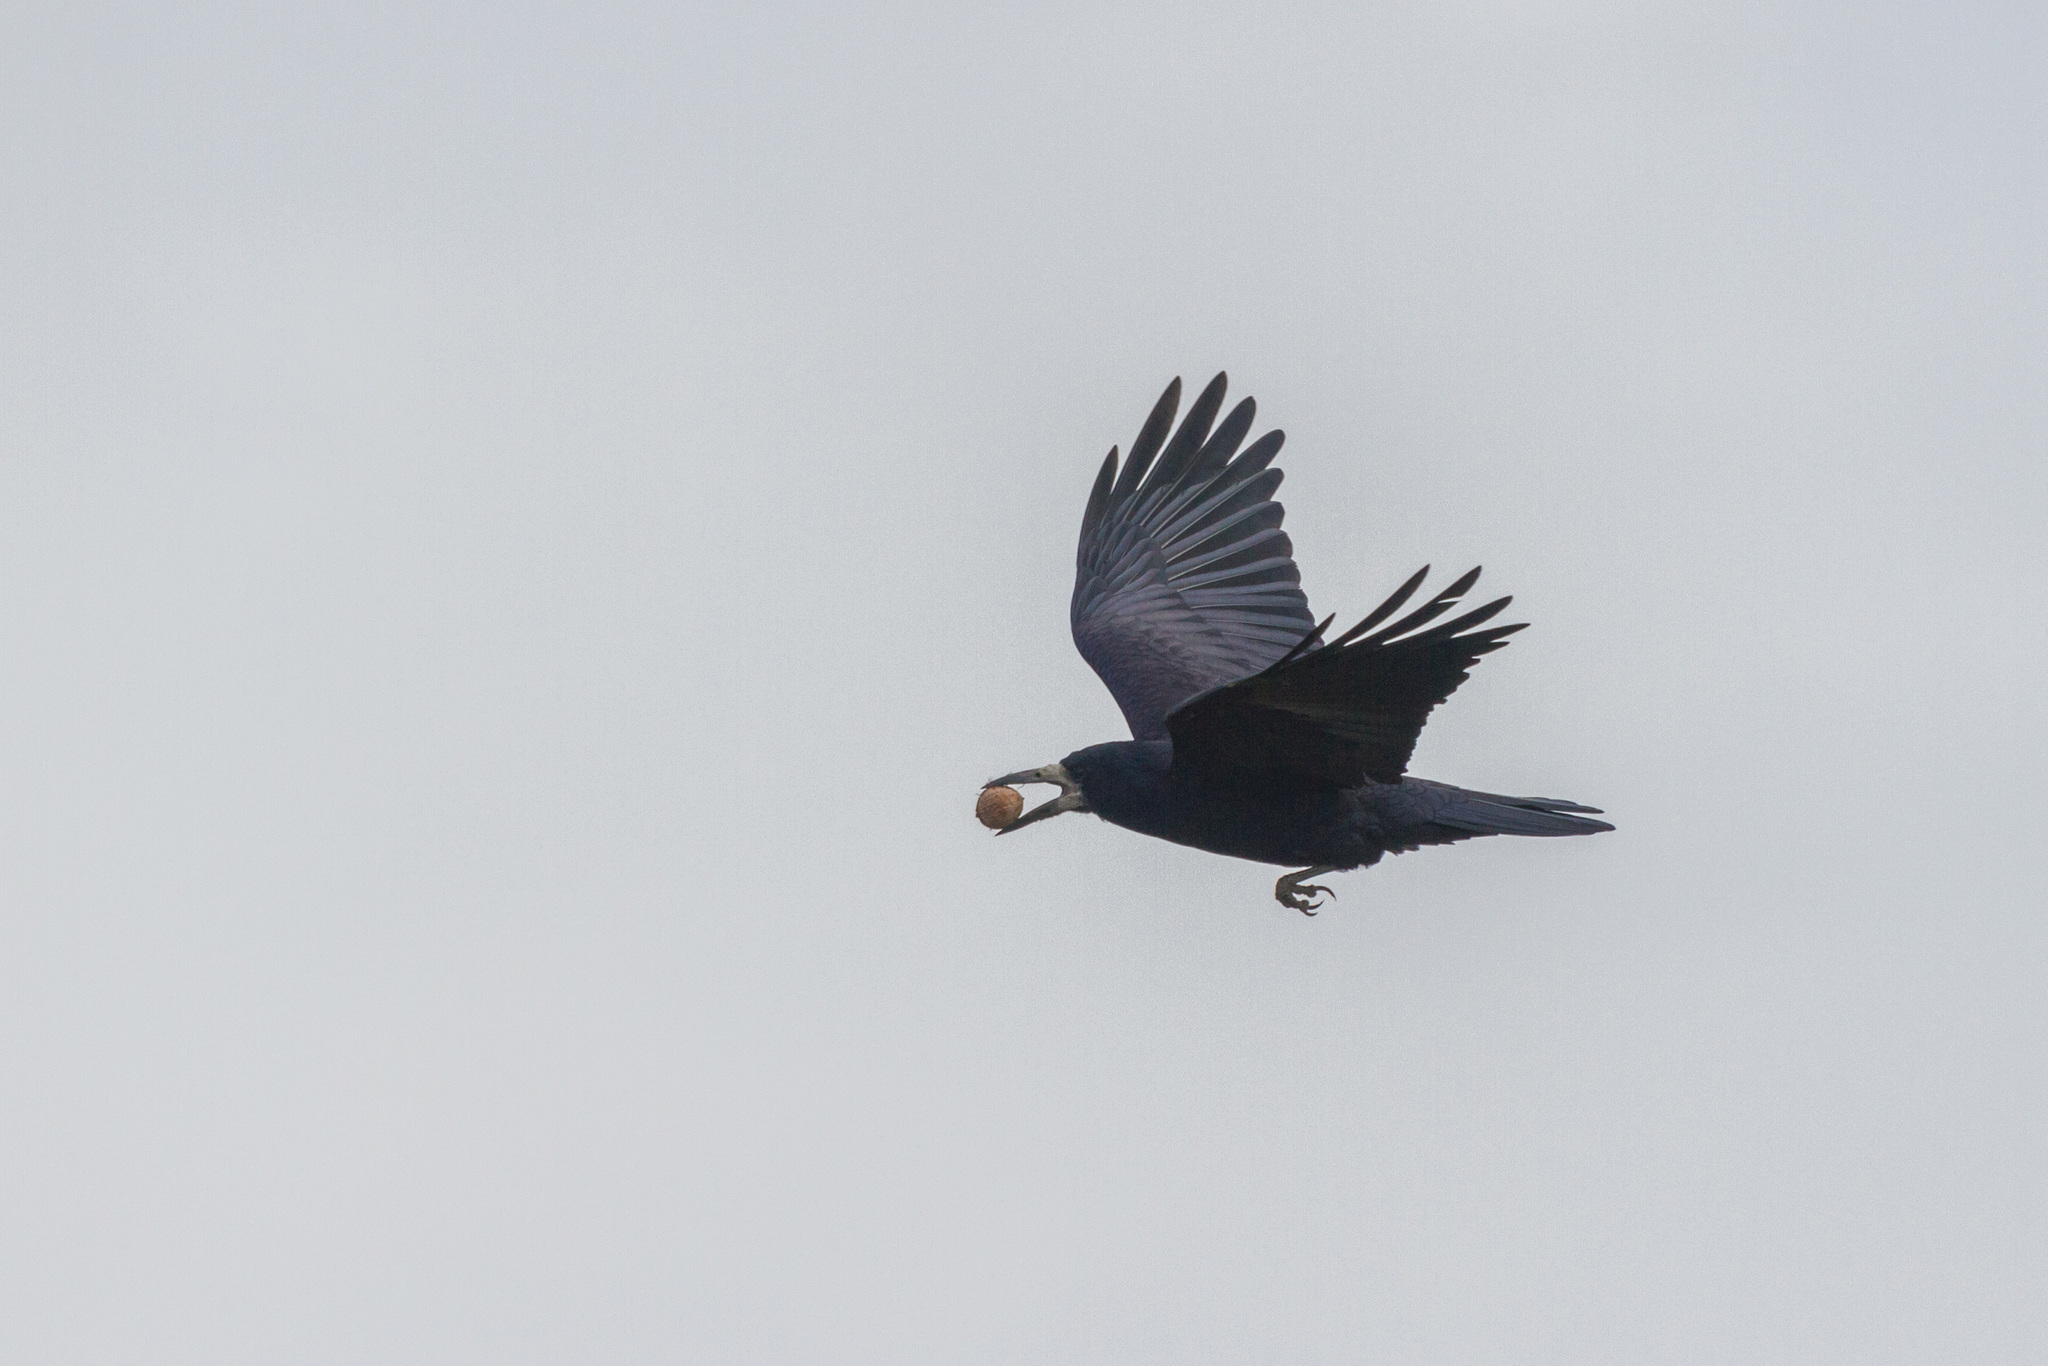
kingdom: Animalia
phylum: Chordata
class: Aves
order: Passeriformes
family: Corvidae
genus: Corvus
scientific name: Corvus frugilegus
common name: Rook
